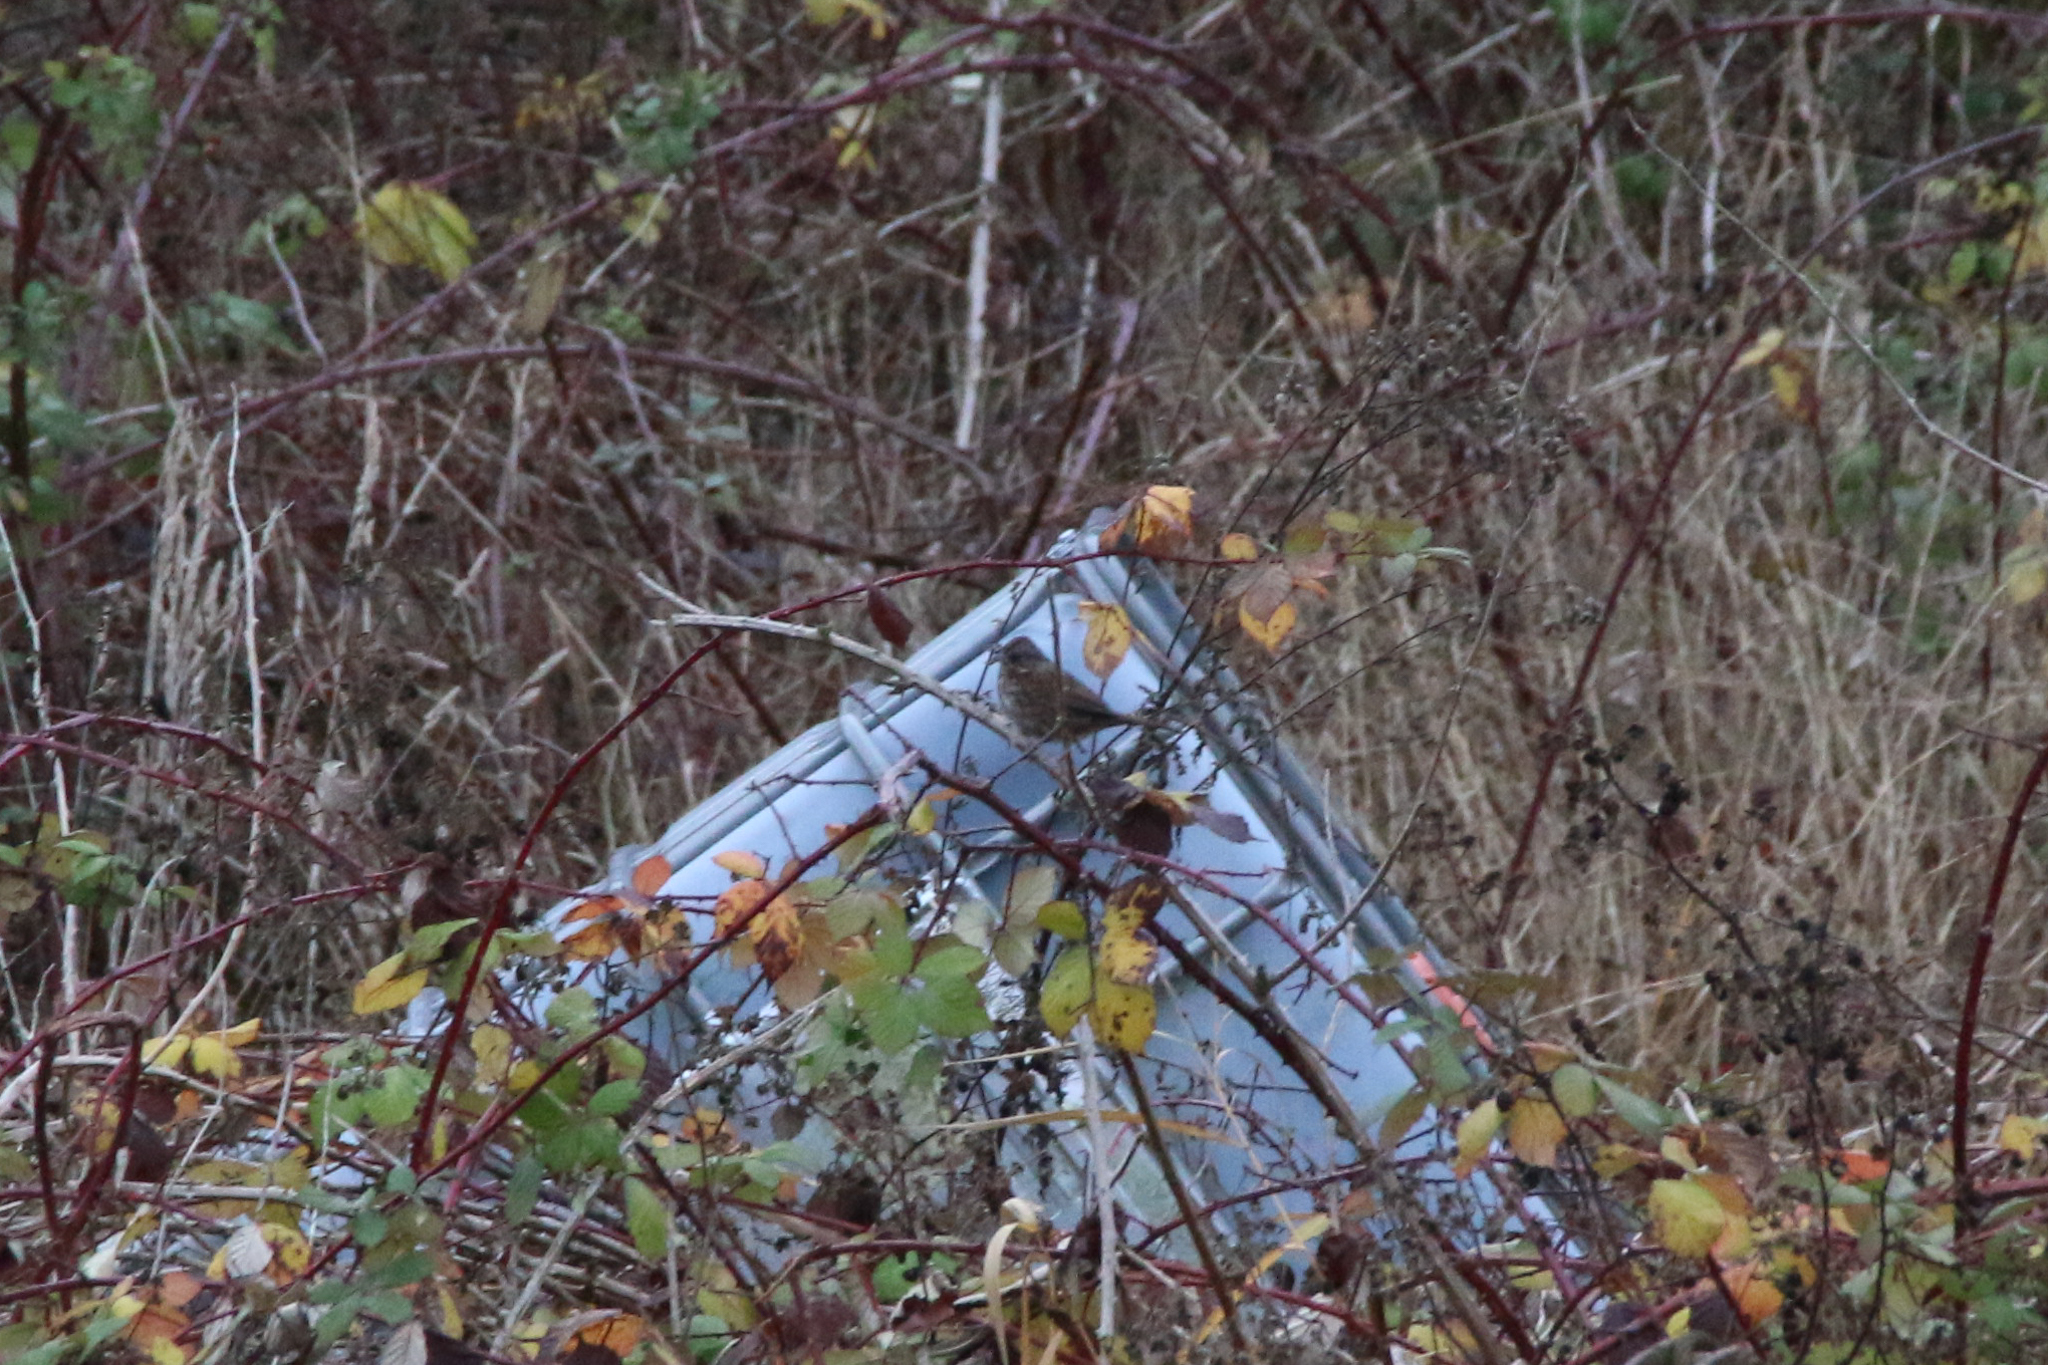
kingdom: Animalia
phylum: Chordata
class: Aves
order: Passeriformes
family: Passerellidae
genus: Melospiza
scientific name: Melospiza melodia
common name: Song sparrow
